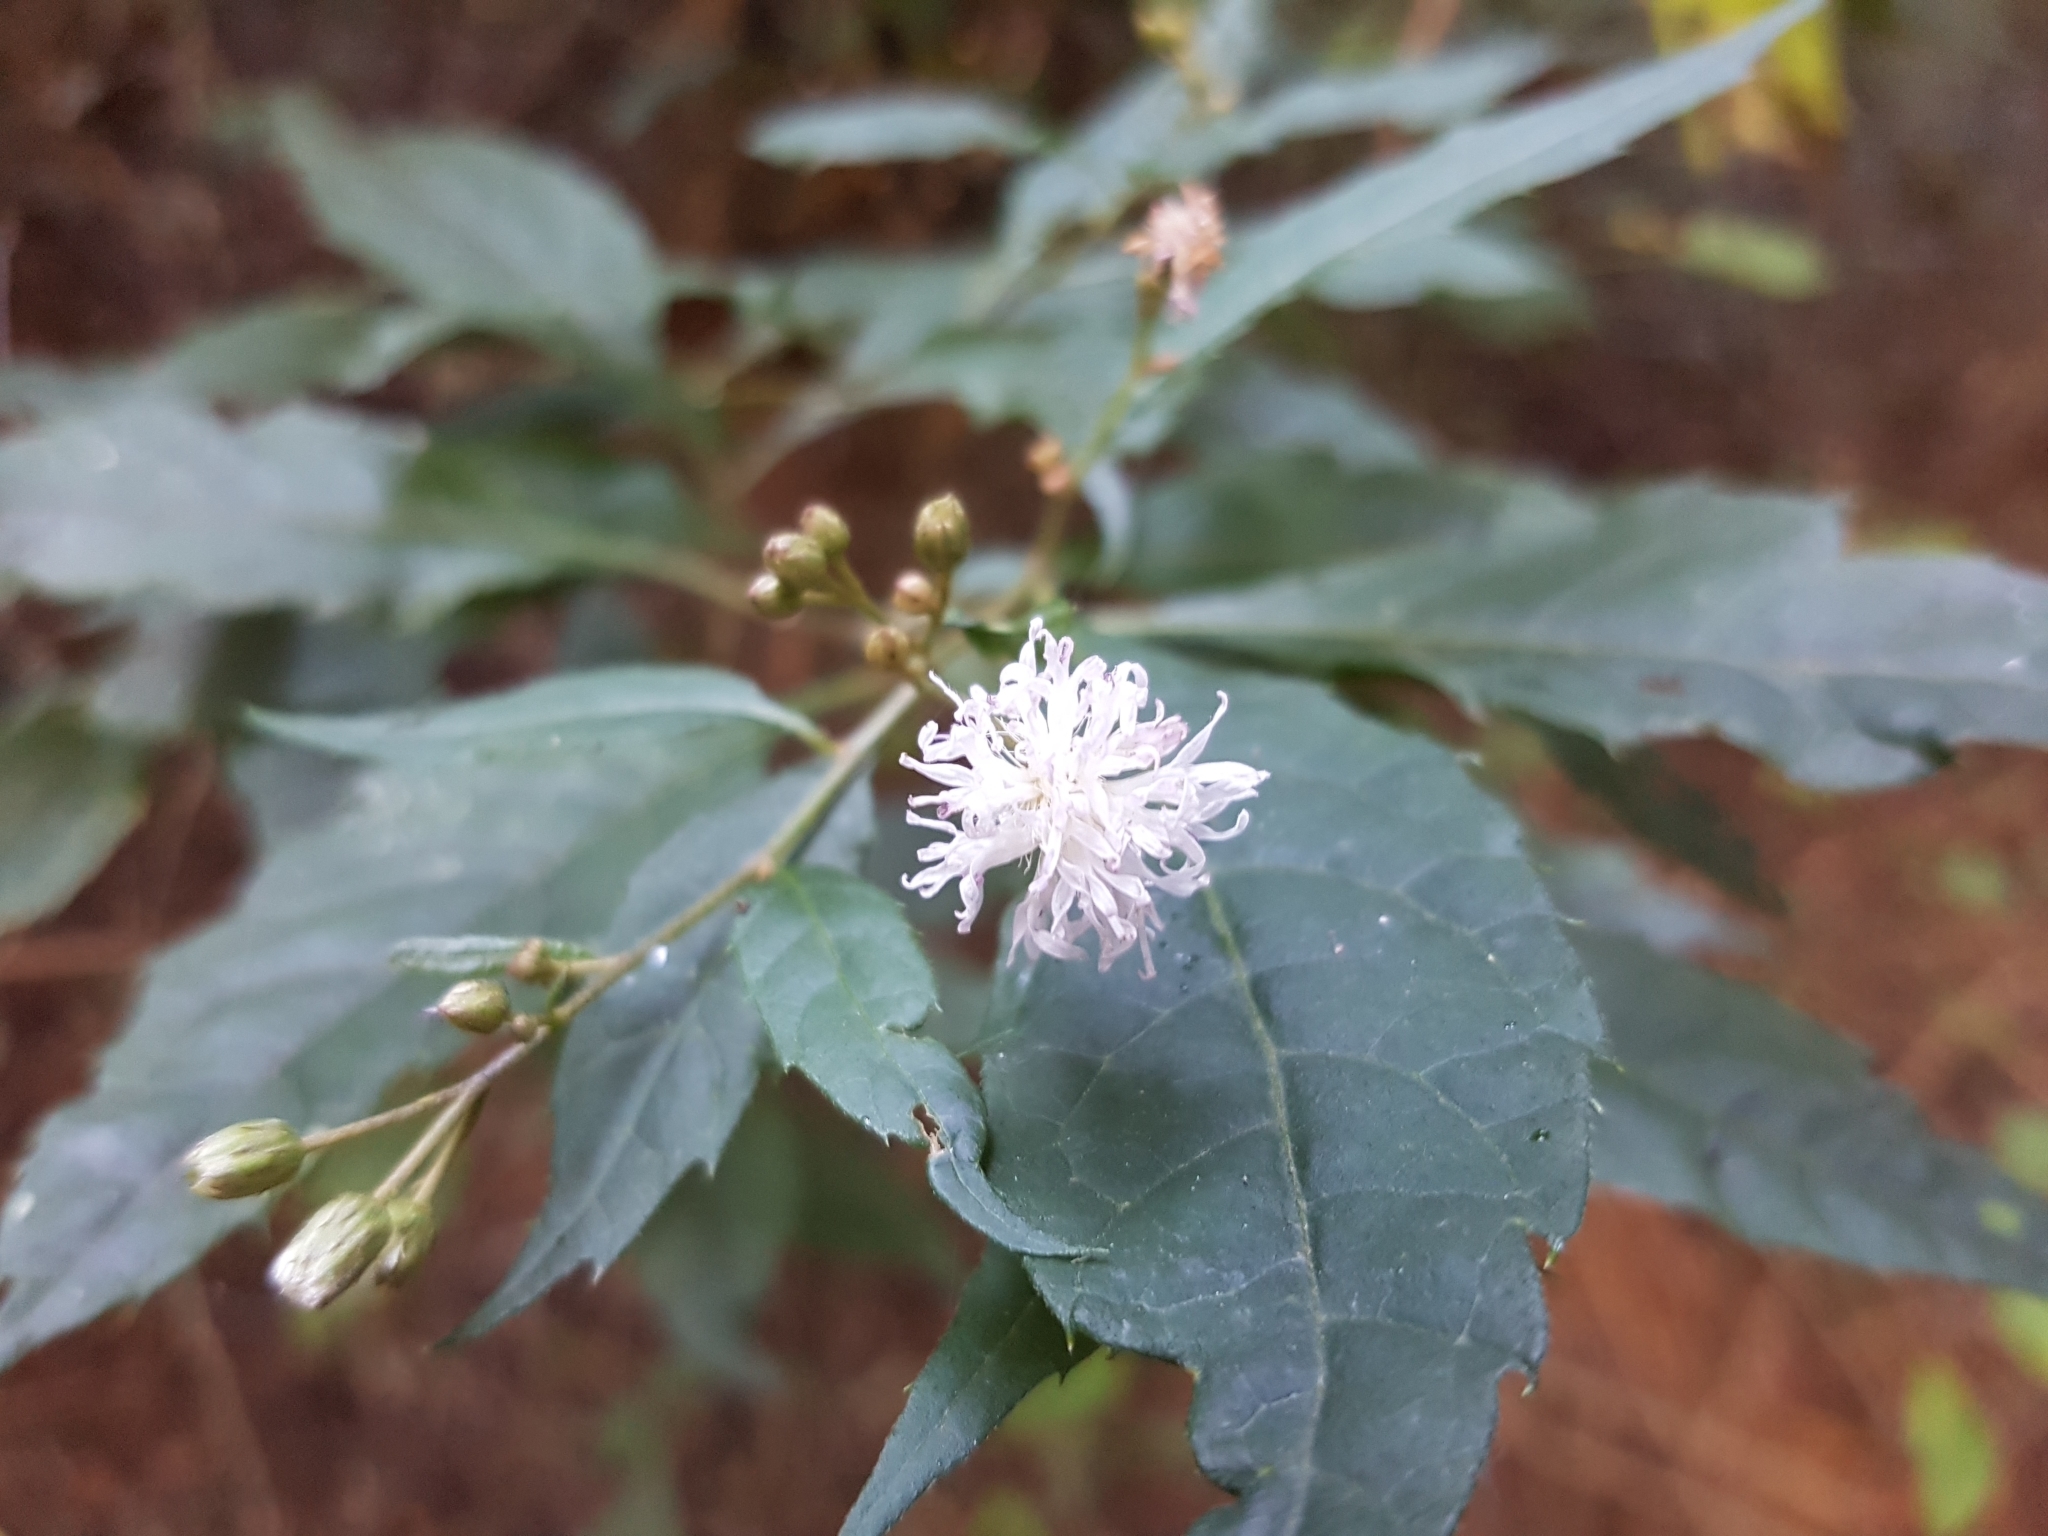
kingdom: Plantae
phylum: Tracheophyta
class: Magnoliopsida
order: Asterales
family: Asteraceae
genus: Cyanthillium
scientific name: Cyanthillium wollastonii
